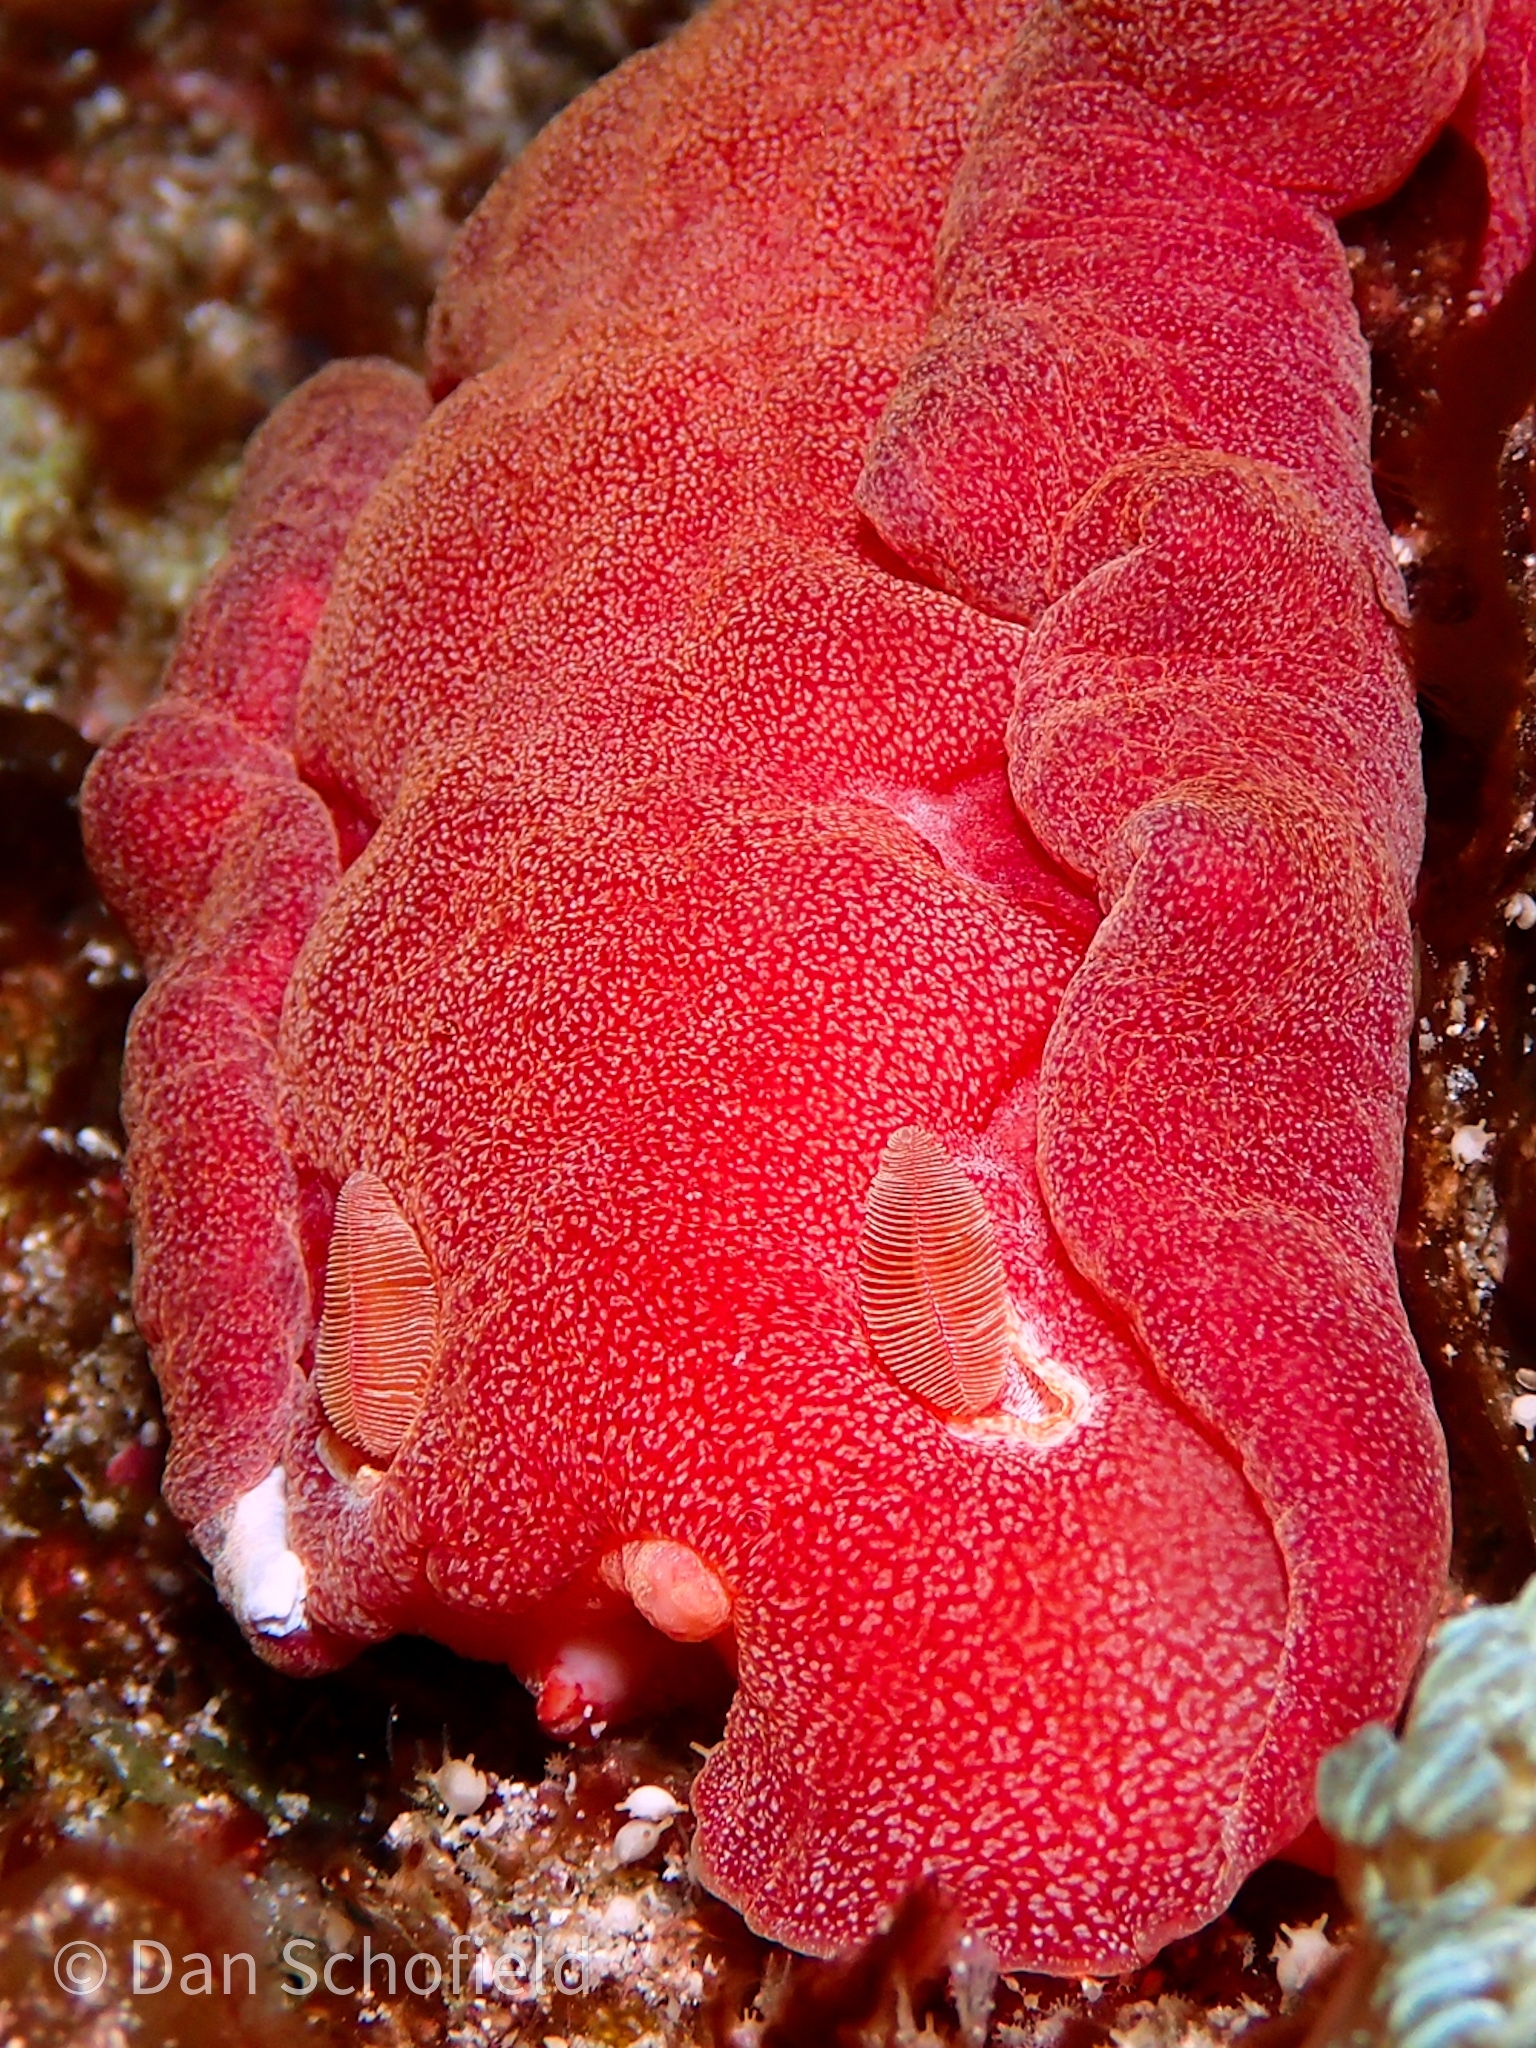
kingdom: Animalia
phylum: Mollusca
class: Gastropoda
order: Nudibranchia
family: Hexabranchidae
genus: Hexabranchus
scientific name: Hexabranchus lacer
